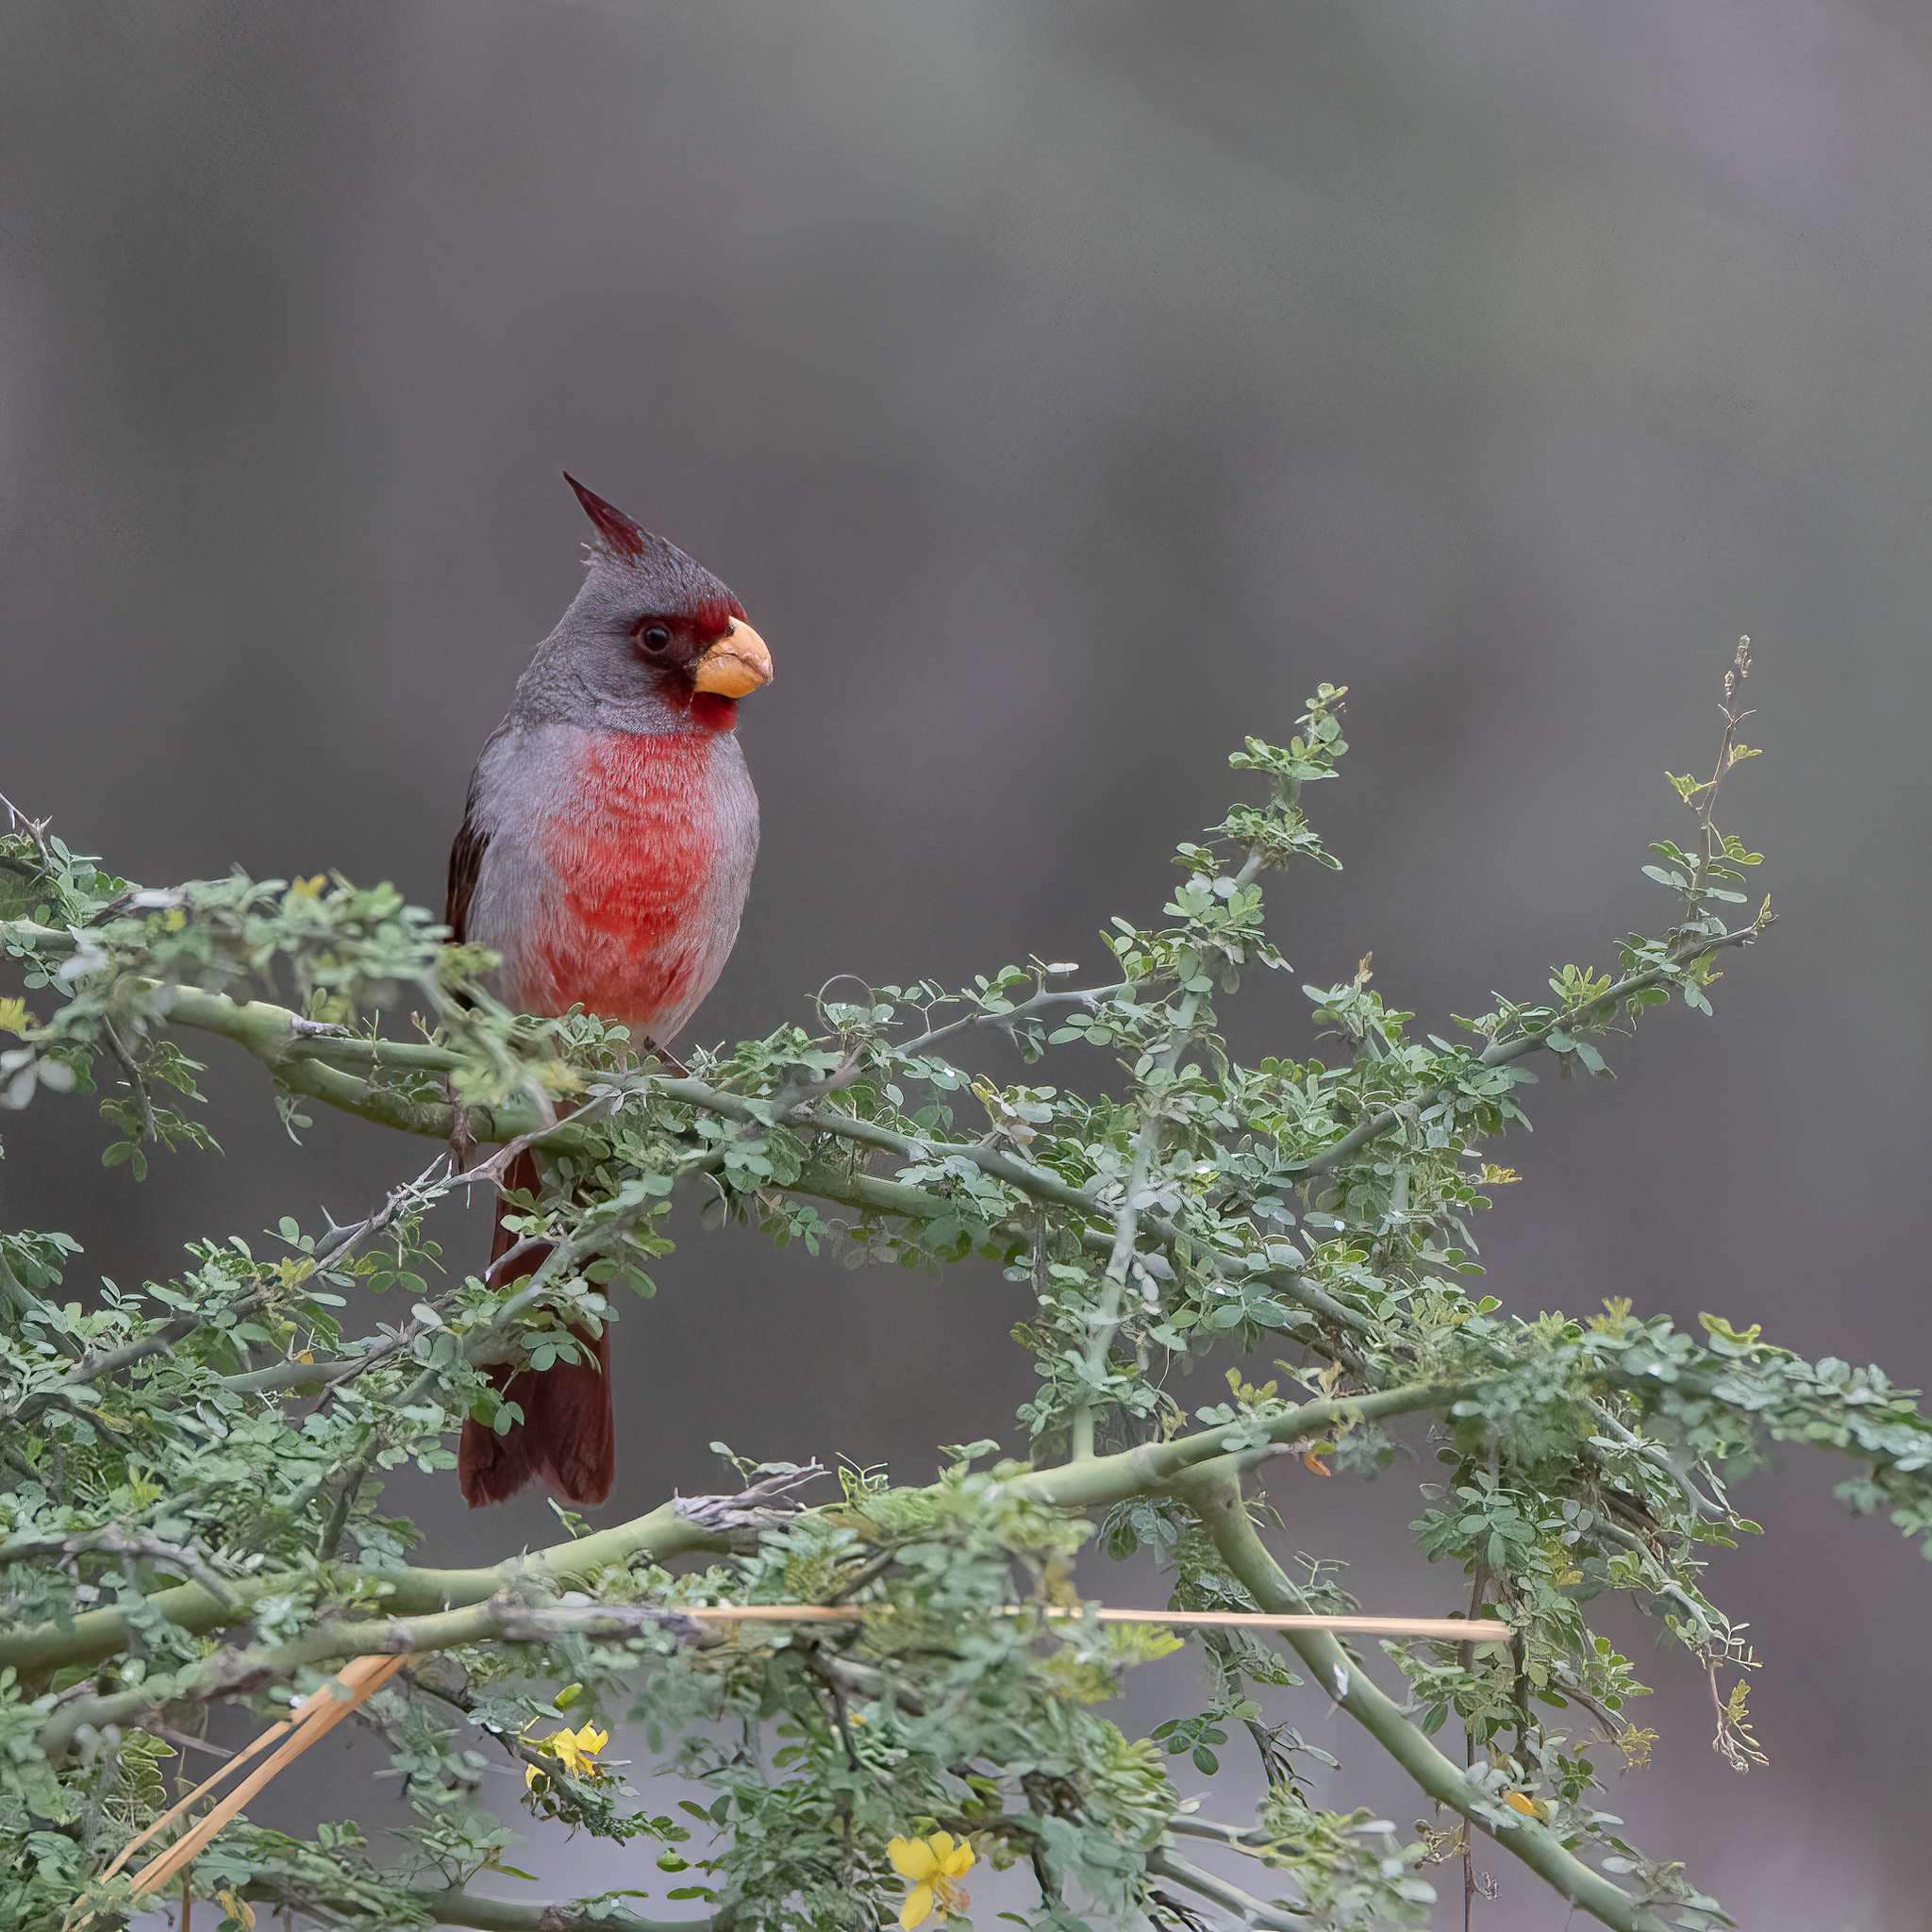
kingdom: Animalia
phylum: Chordata
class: Aves
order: Passeriformes
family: Cardinalidae
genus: Cardinalis
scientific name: Cardinalis sinuatus
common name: Pyrrhuloxia
